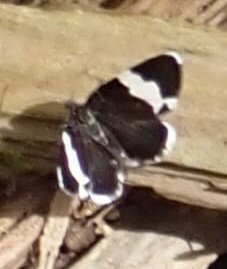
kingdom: Animalia
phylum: Arthropoda
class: Insecta
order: Lepidoptera
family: Geometridae
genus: Trichodezia
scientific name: Trichodezia albovittata
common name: White striped black
